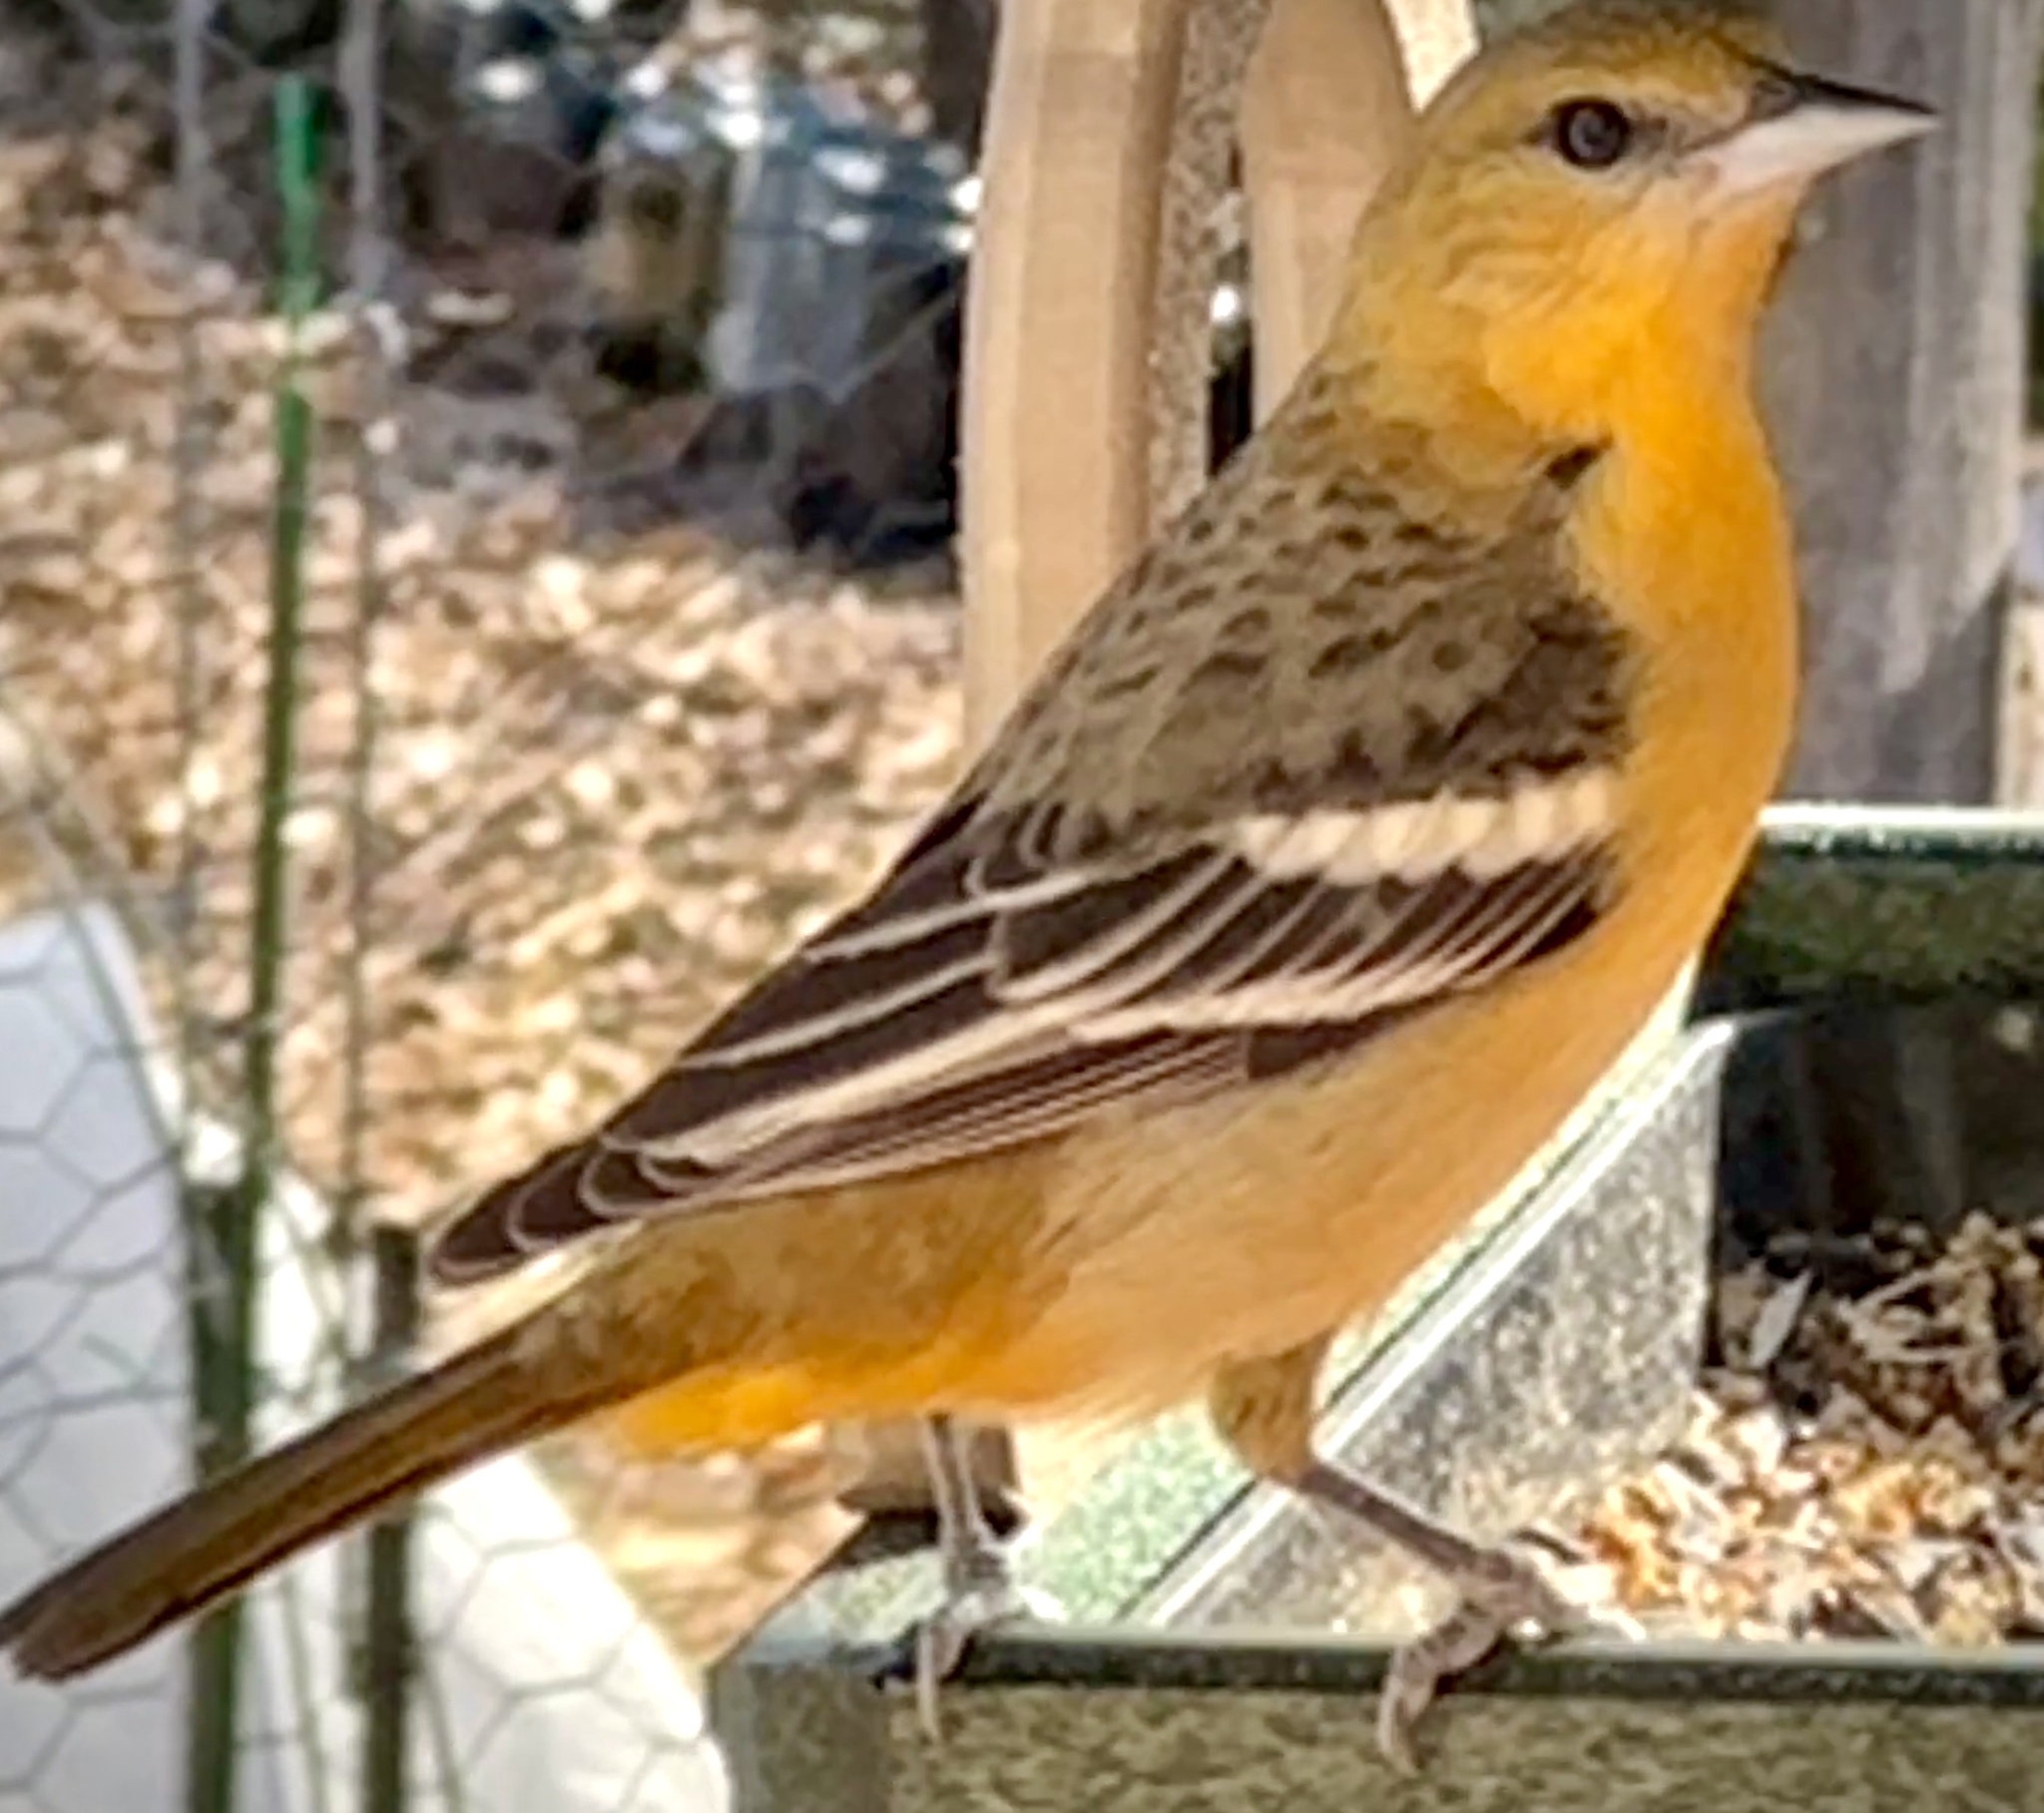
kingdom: Animalia
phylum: Chordata
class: Aves
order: Passeriformes
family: Icteridae
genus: Icterus
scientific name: Icterus galbula
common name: Baltimore oriole
